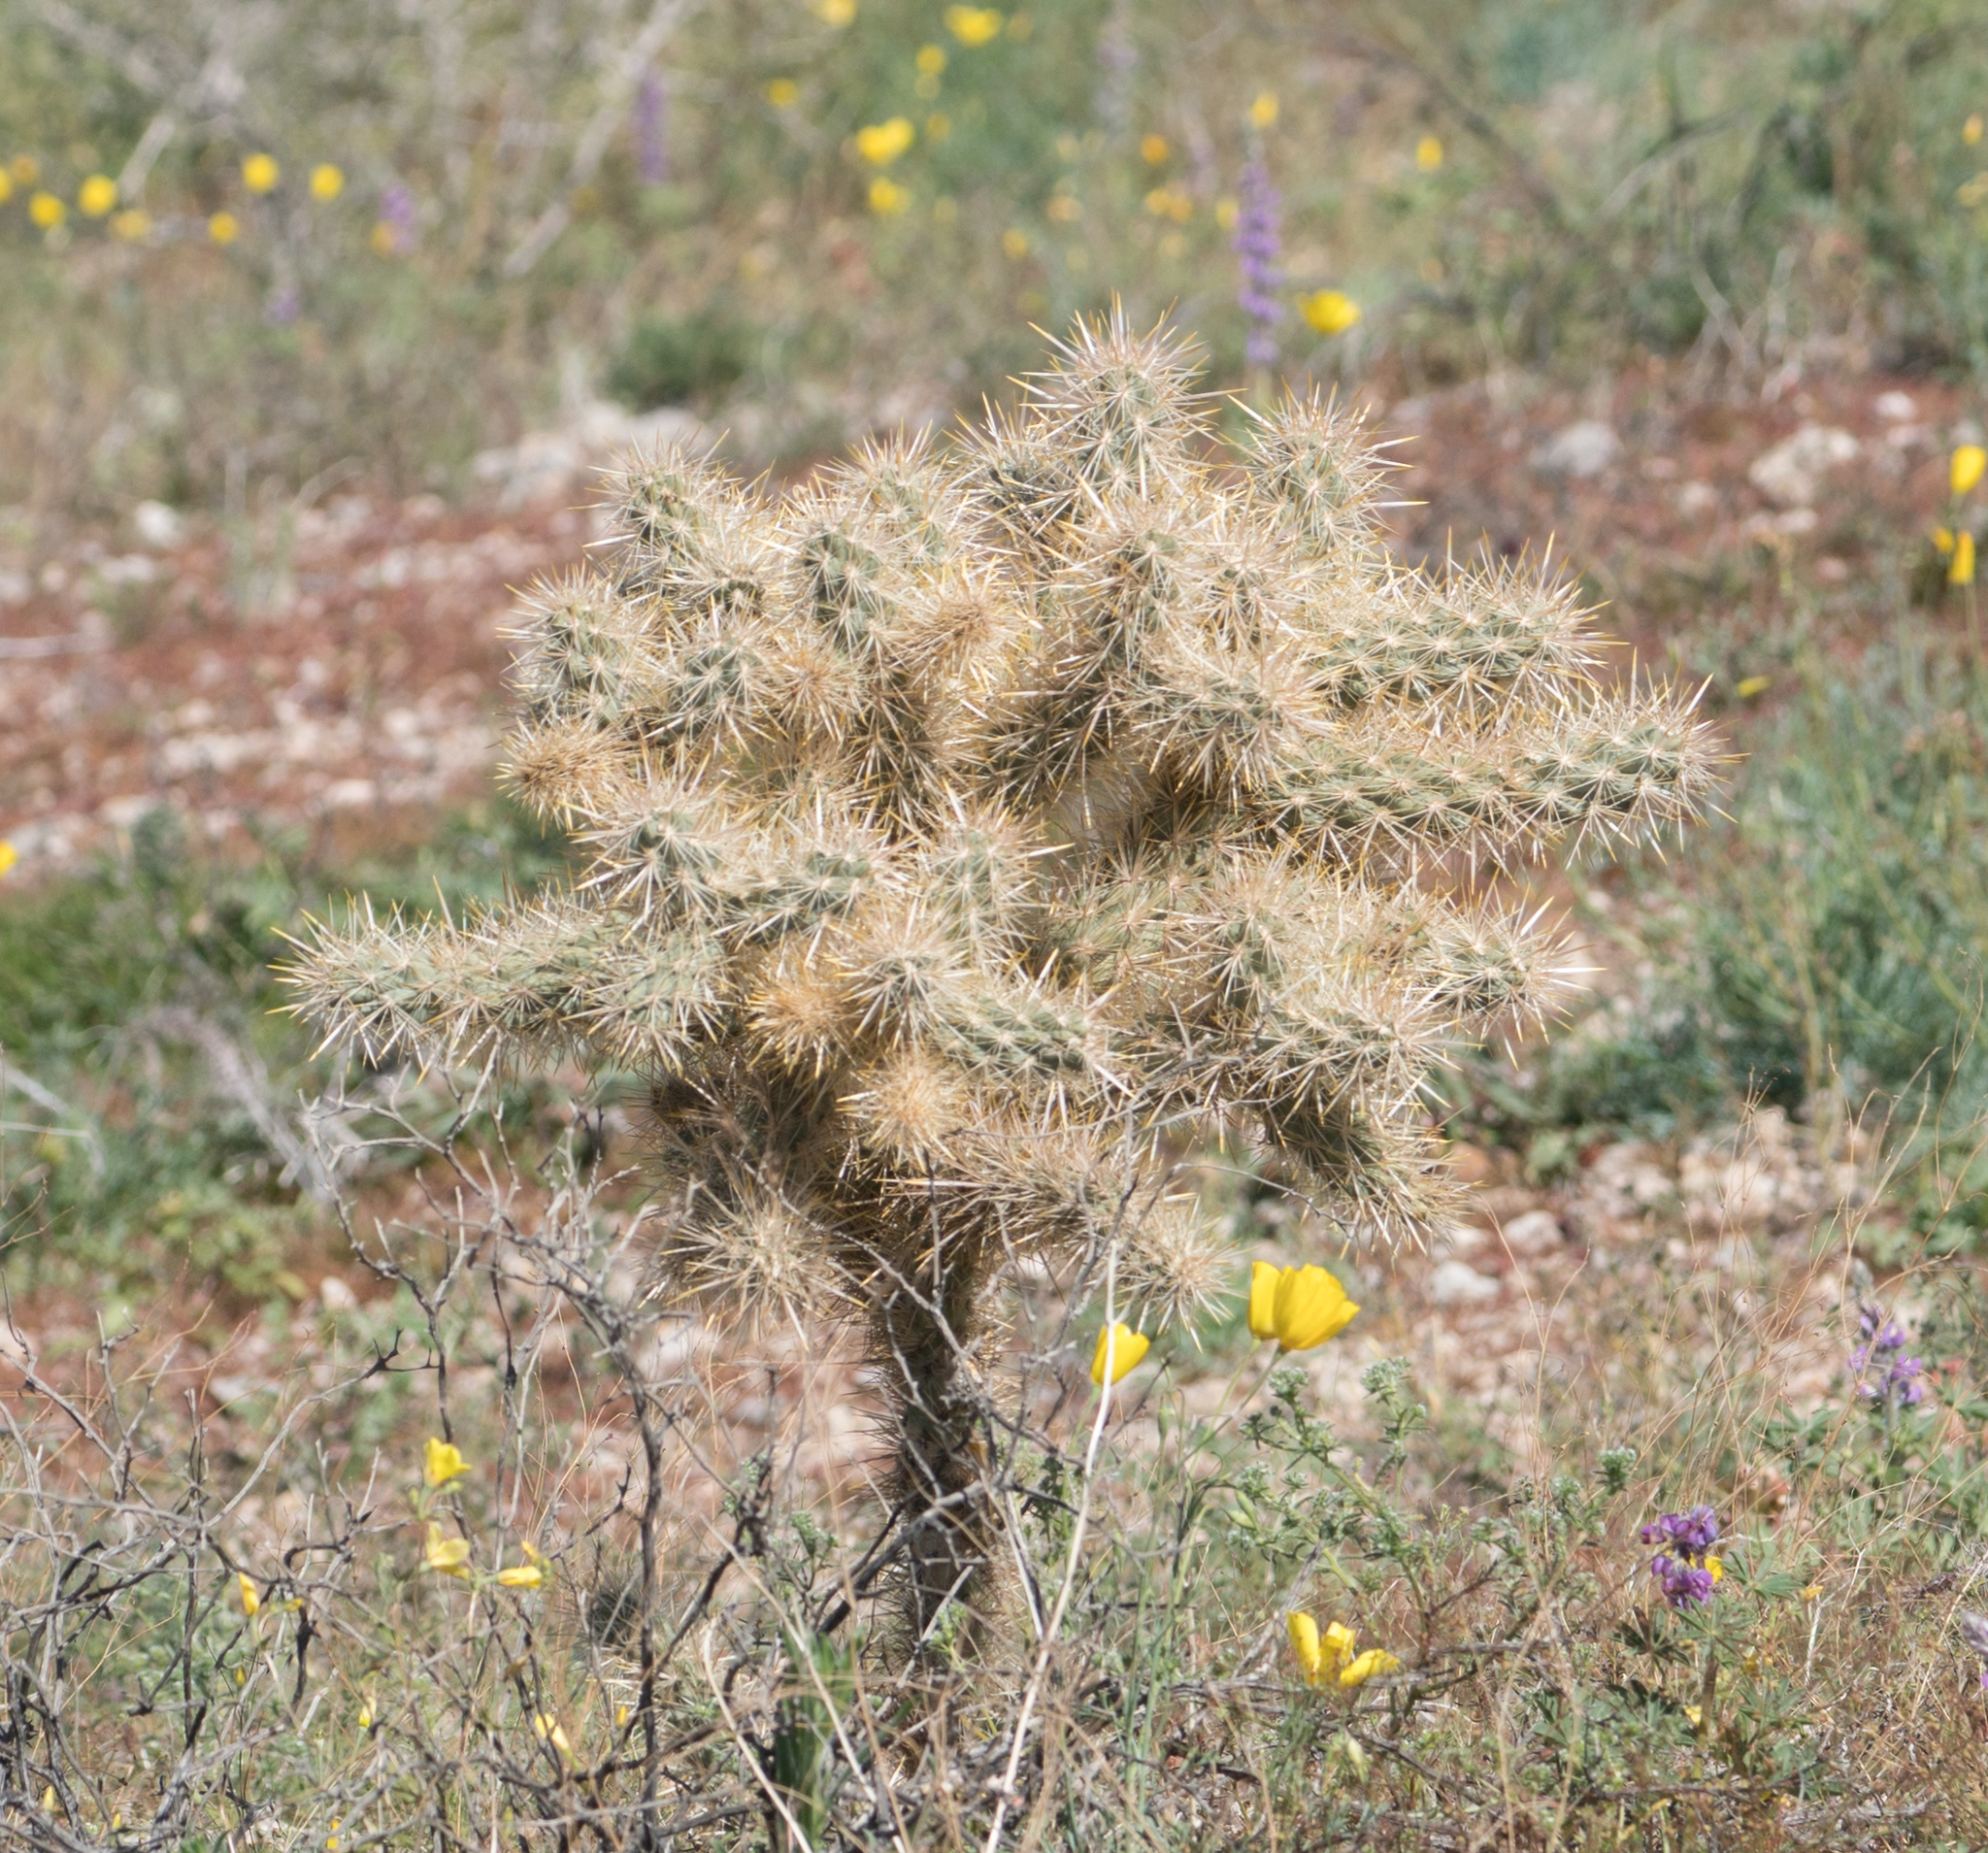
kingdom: Plantae
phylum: Tracheophyta
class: Magnoliopsida
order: Caryophyllales
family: Cactaceae
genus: Cylindropuntia
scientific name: Cylindropuntia echinocarpa
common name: Ground cholla
